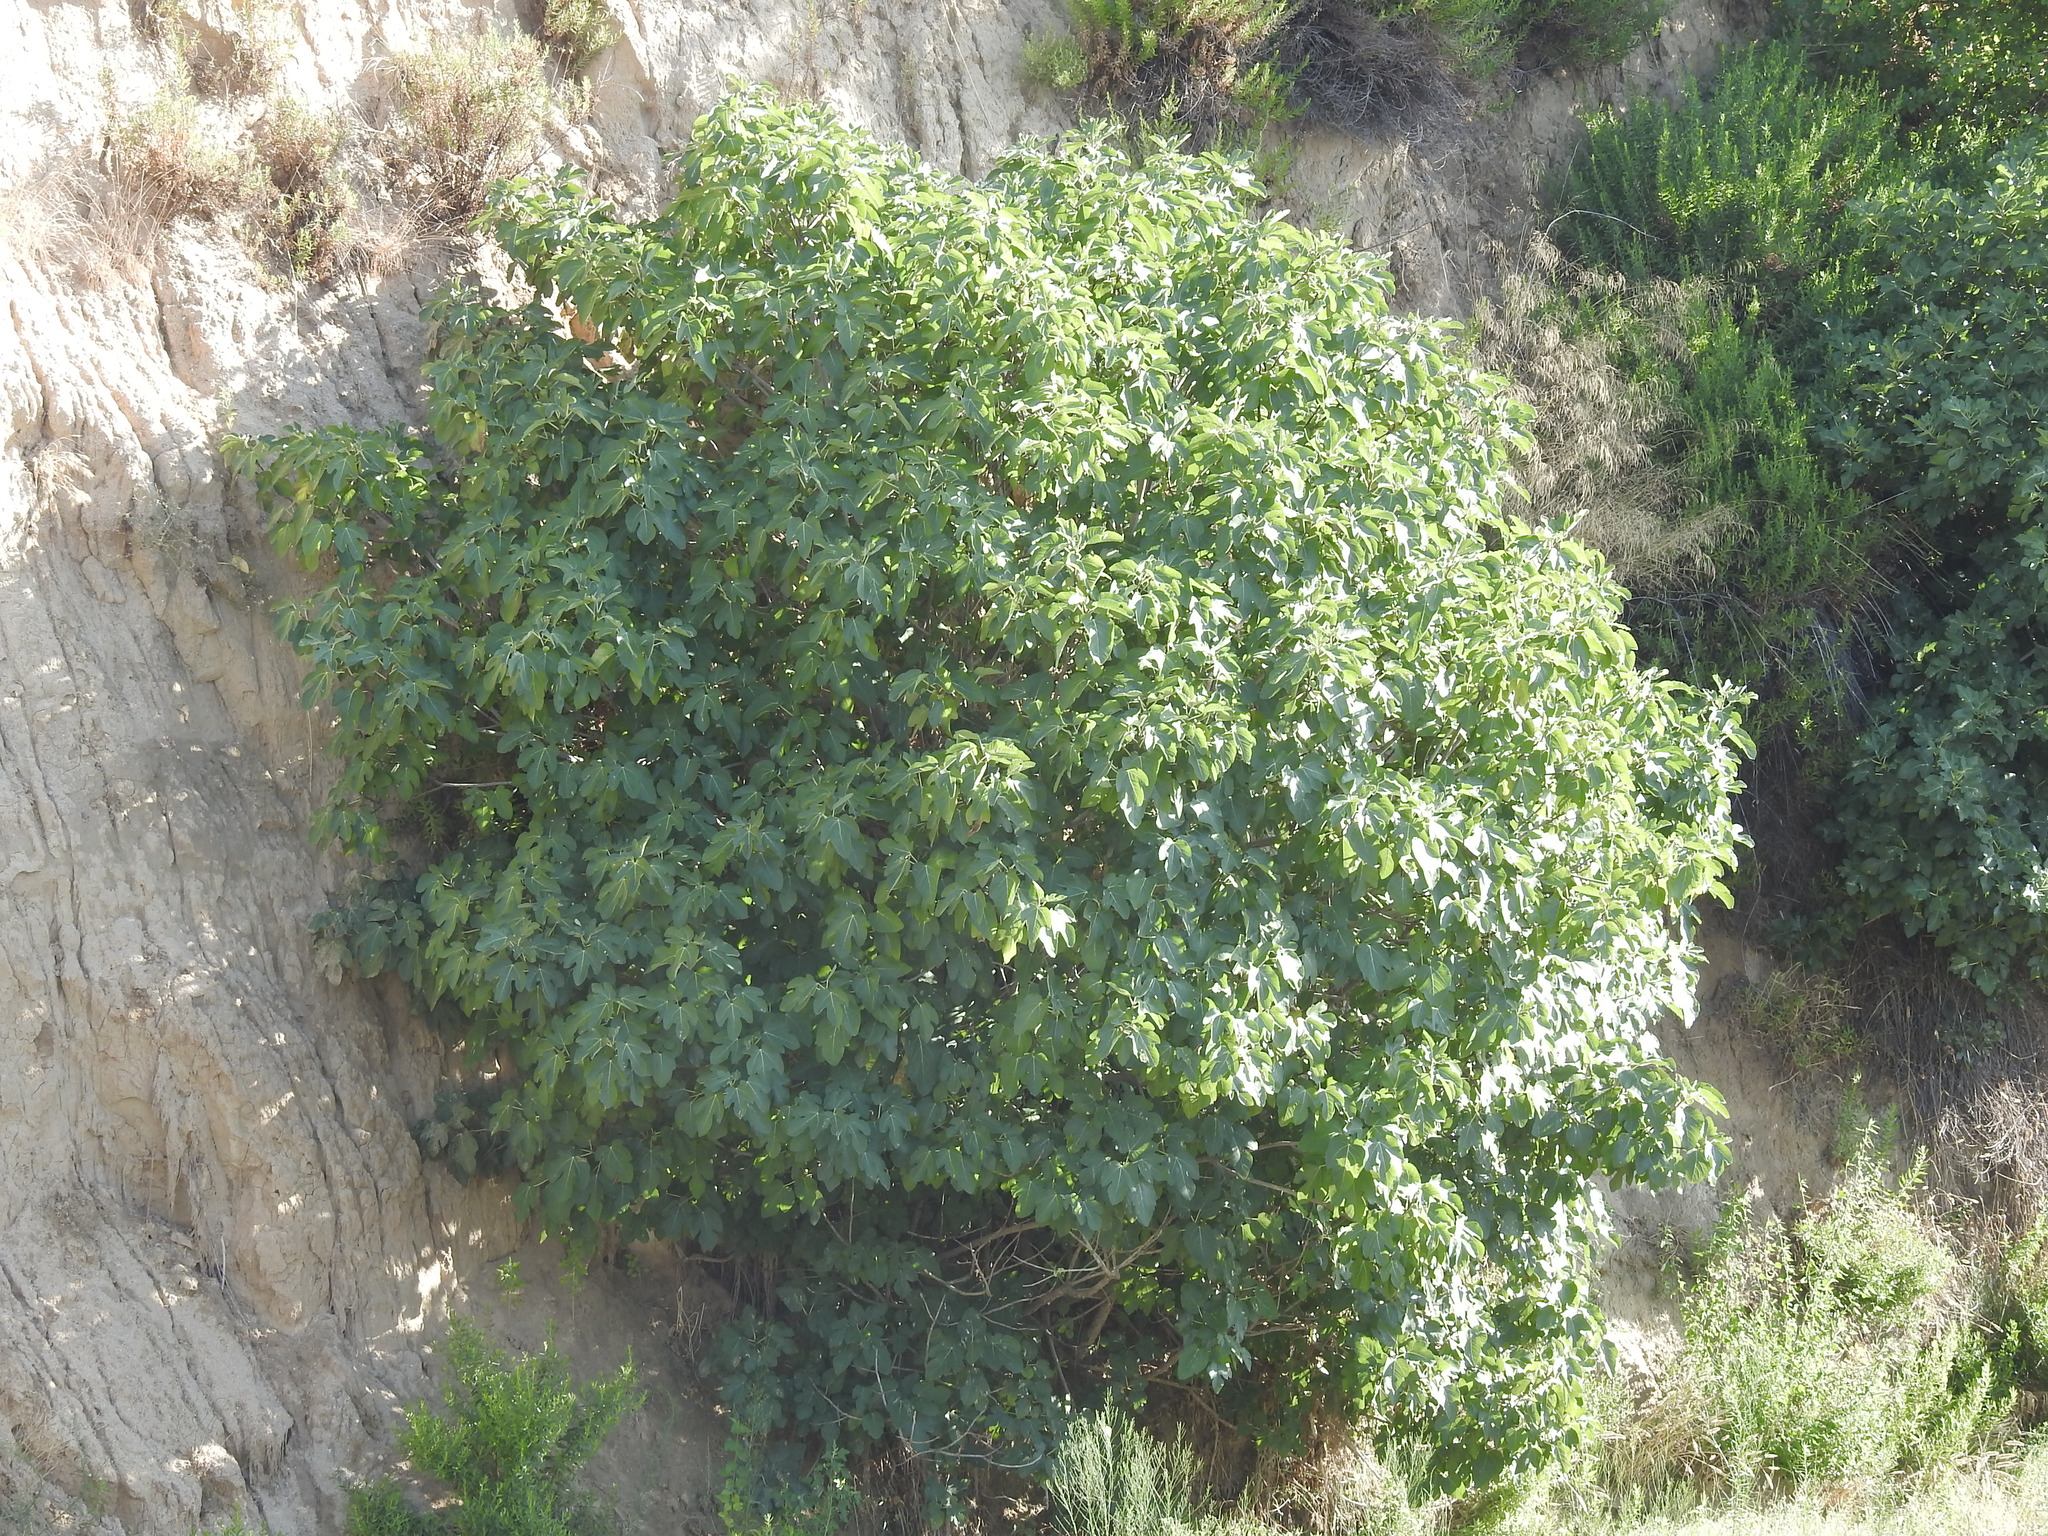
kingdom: Plantae
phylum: Tracheophyta
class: Magnoliopsida
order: Rosales
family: Moraceae
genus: Ficus
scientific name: Ficus carica
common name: Fig
